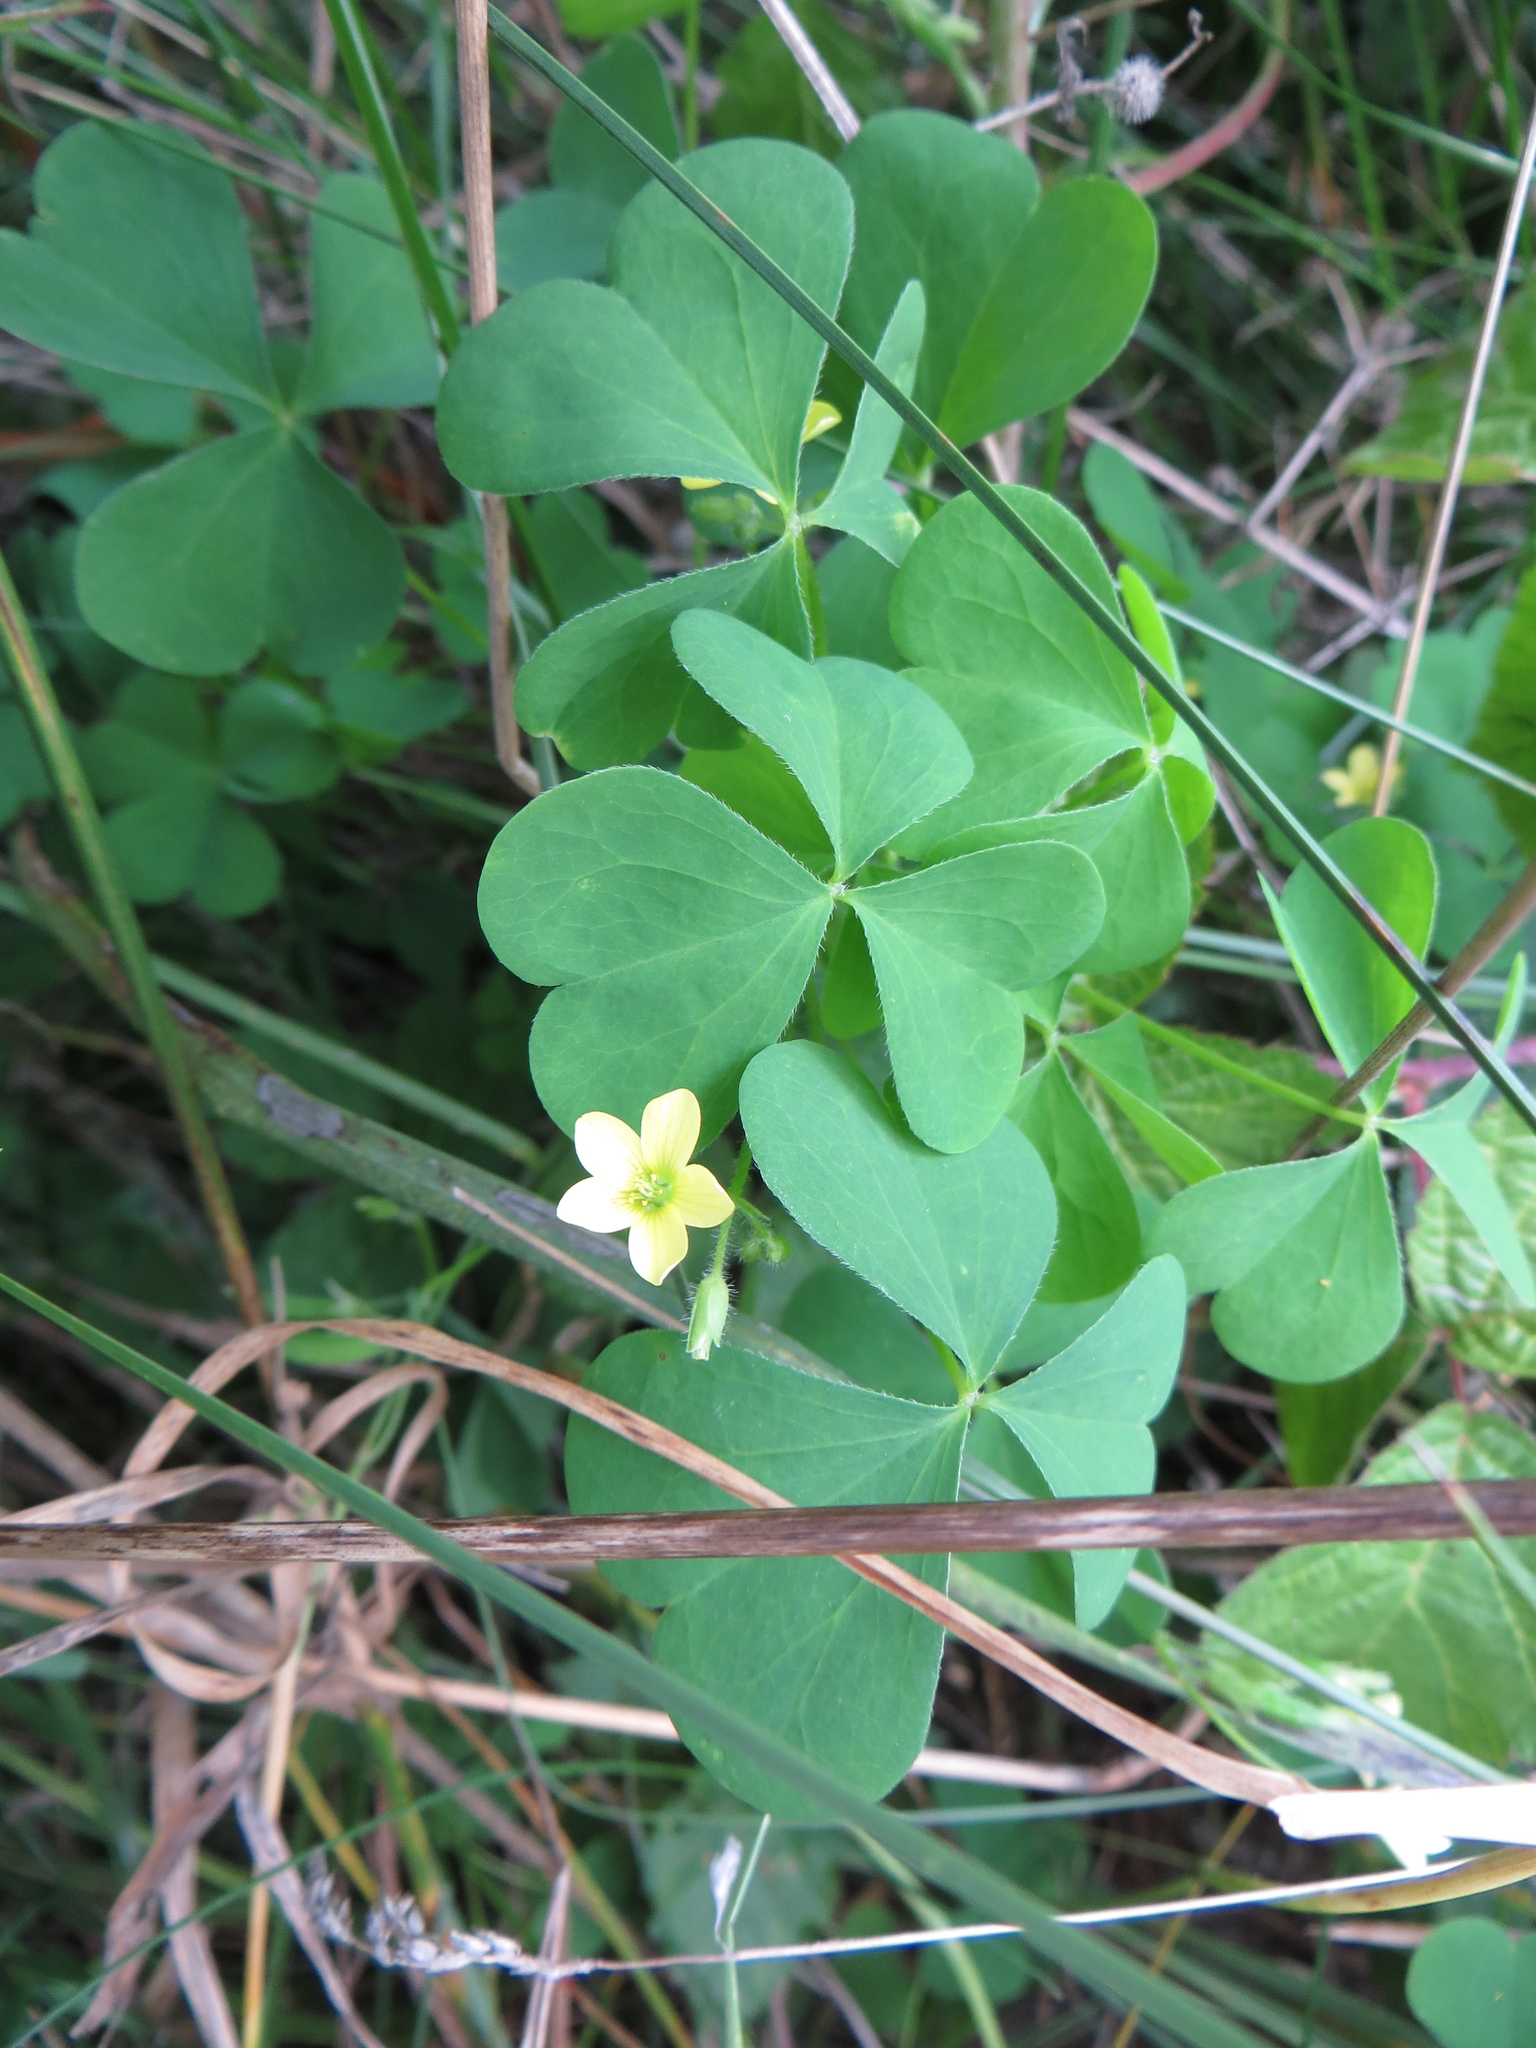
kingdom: Plantae
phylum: Tracheophyta
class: Magnoliopsida
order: Oxalidales
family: Oxalidaceae
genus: Oxalis
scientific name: Oxalis stricta
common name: Upright yellow-sorrel
